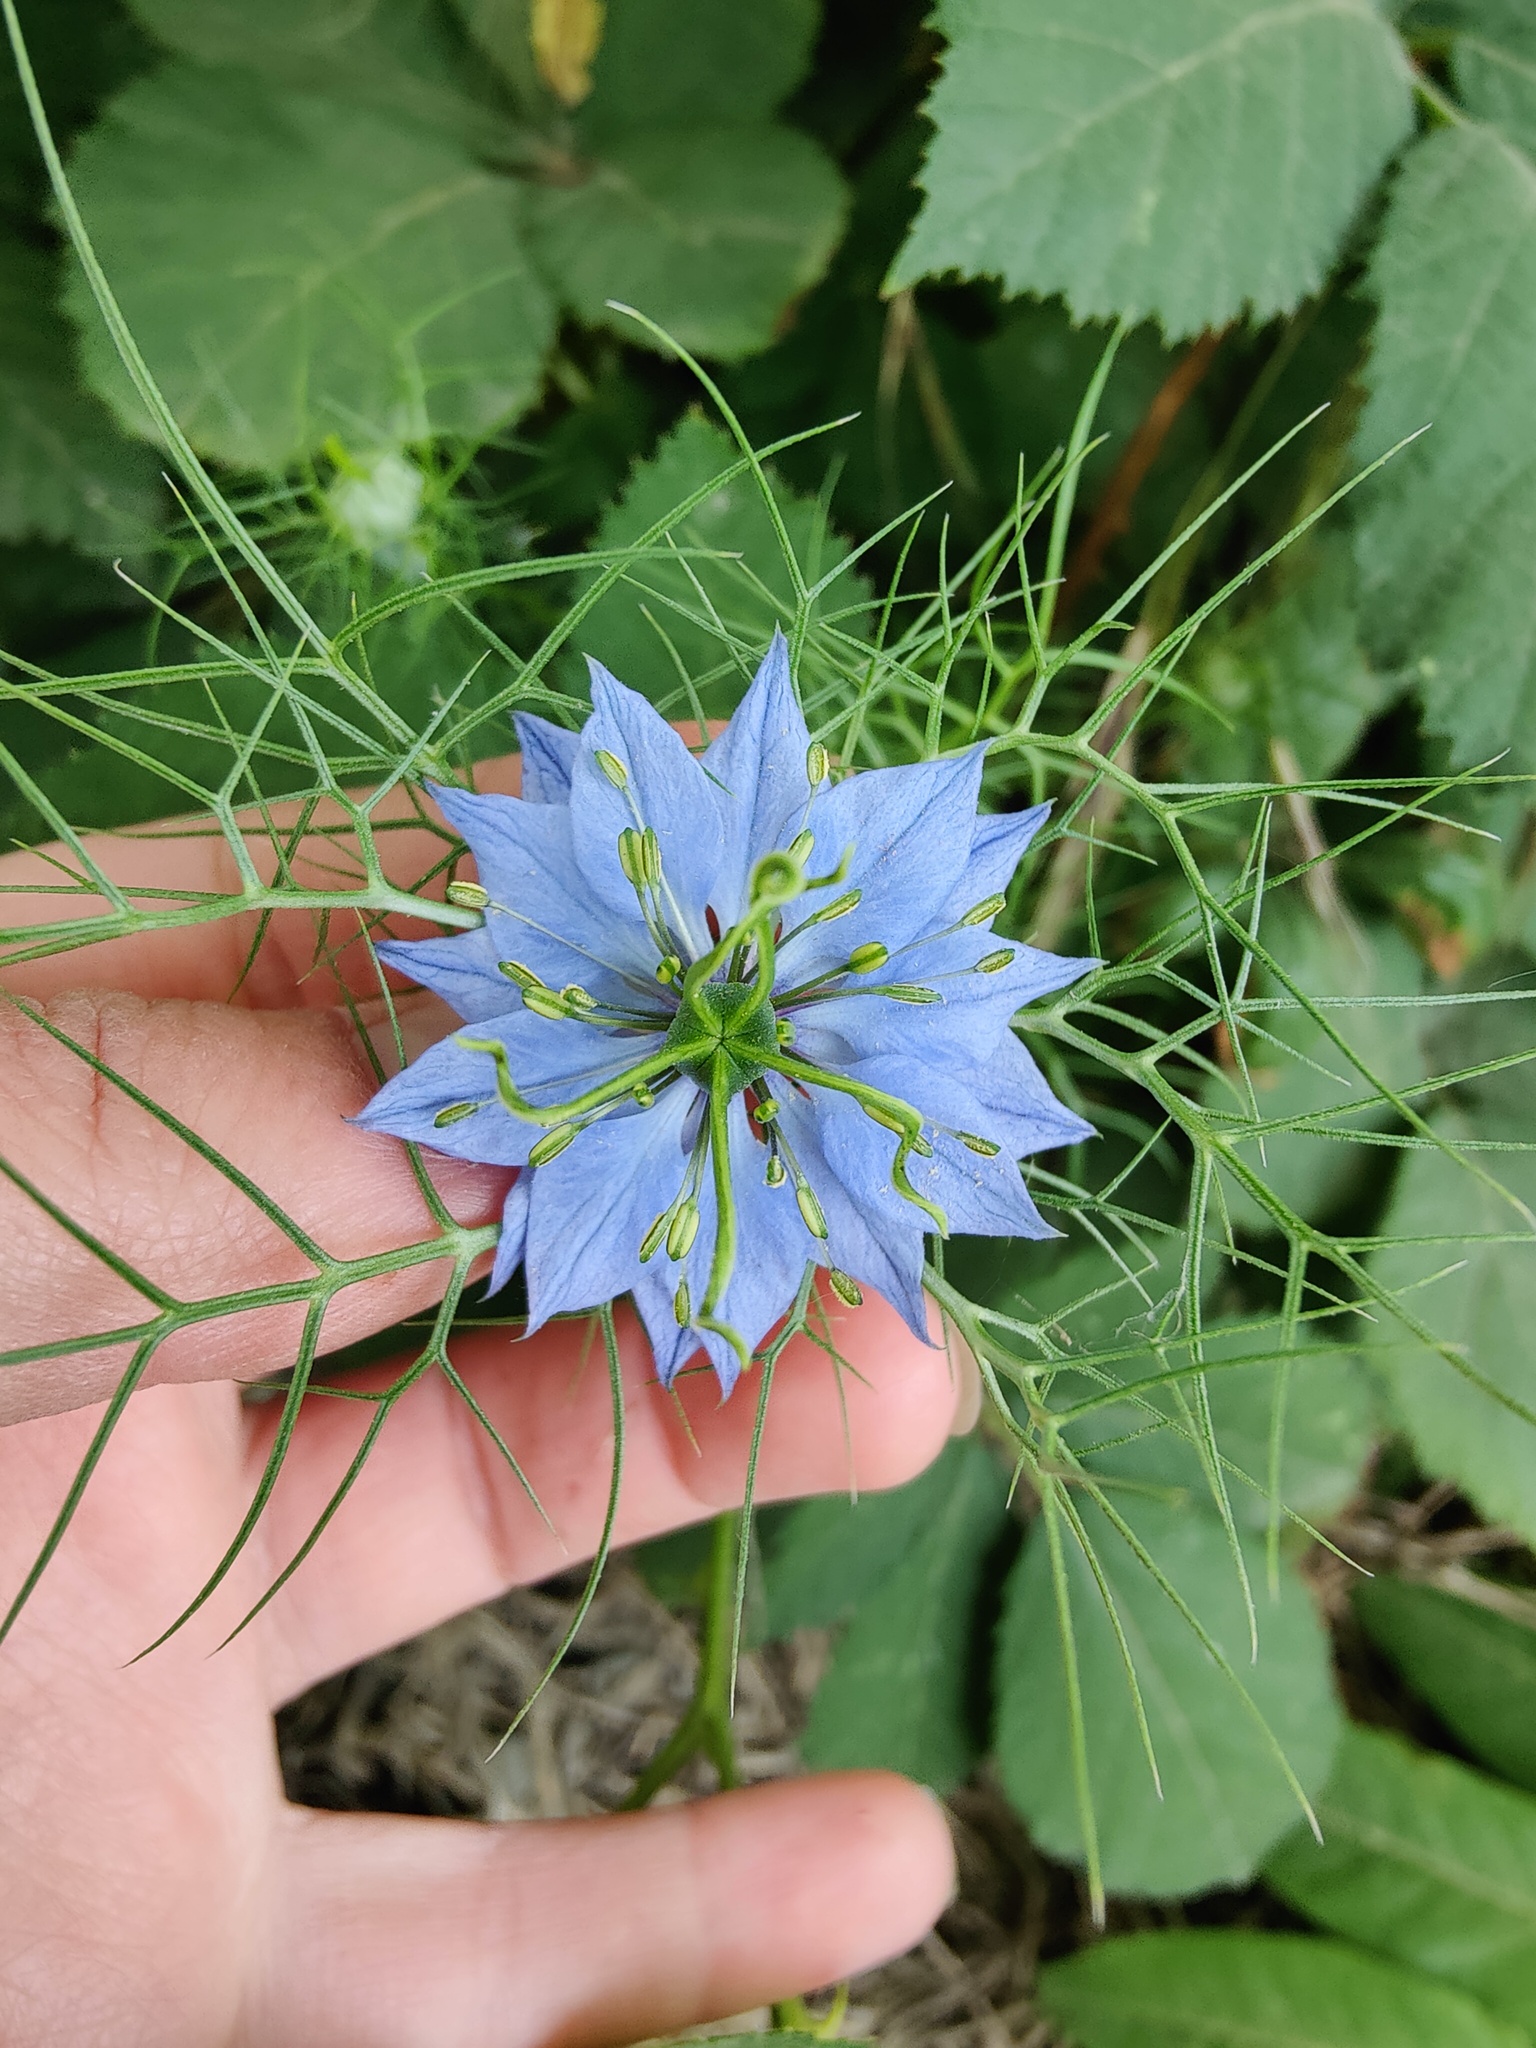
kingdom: Plantae
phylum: Tracheophyta
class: Magnoliopsida
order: Ranunculales
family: Ranunculaceae
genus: Nigella
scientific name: Nigella damascena
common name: Love-in-a-mist
